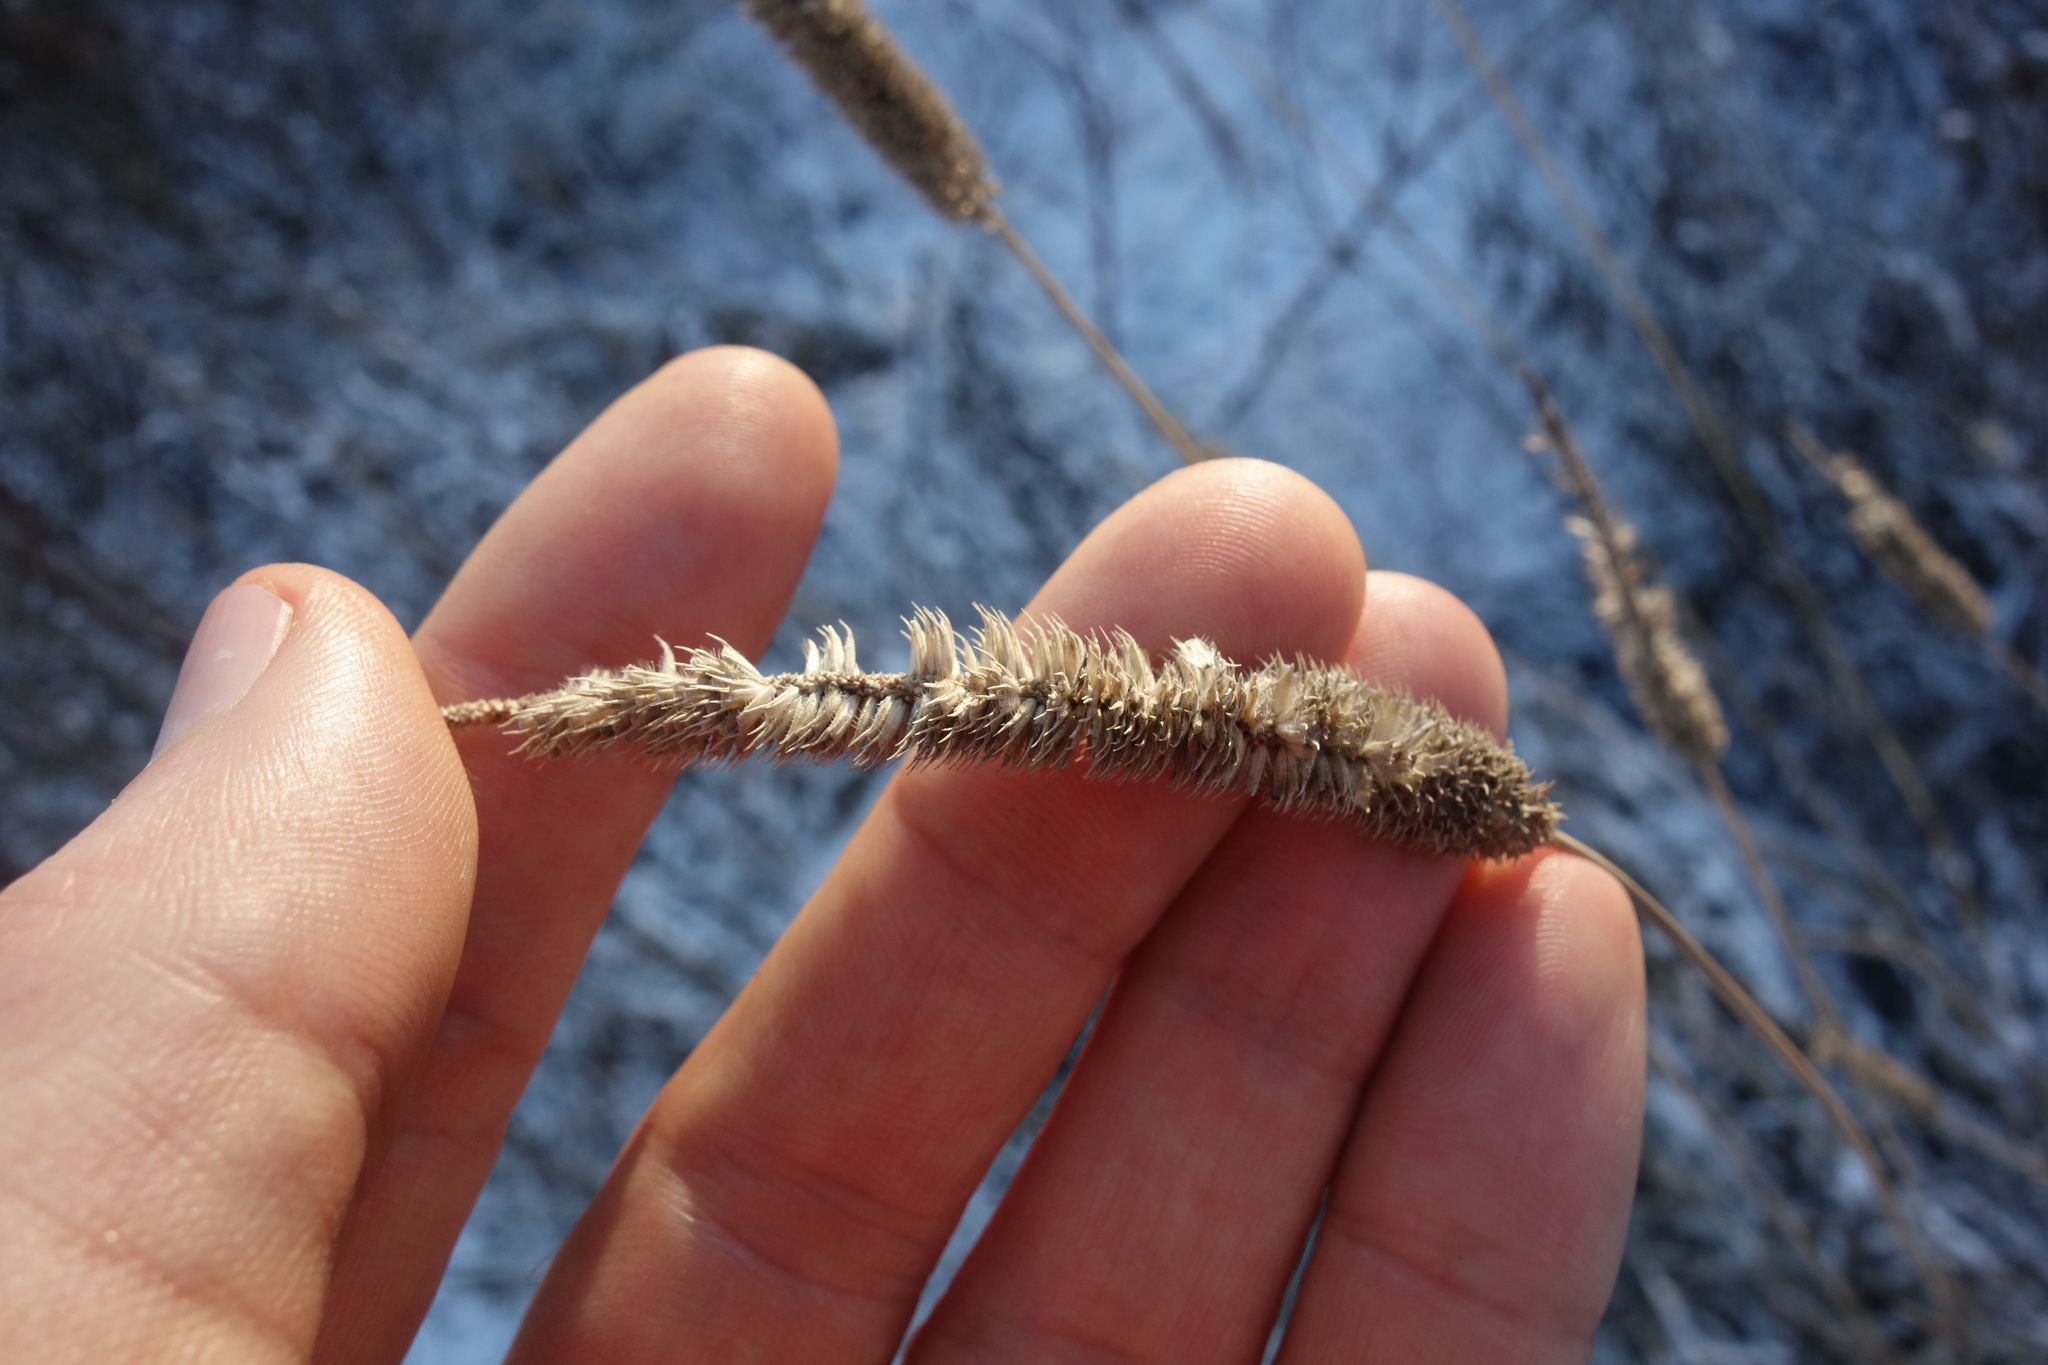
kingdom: Plantae
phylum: Tracheophyta
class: Liliopsida
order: Poales
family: Poaceae
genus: Phleum
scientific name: Phleum pratense
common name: Timothy grass
